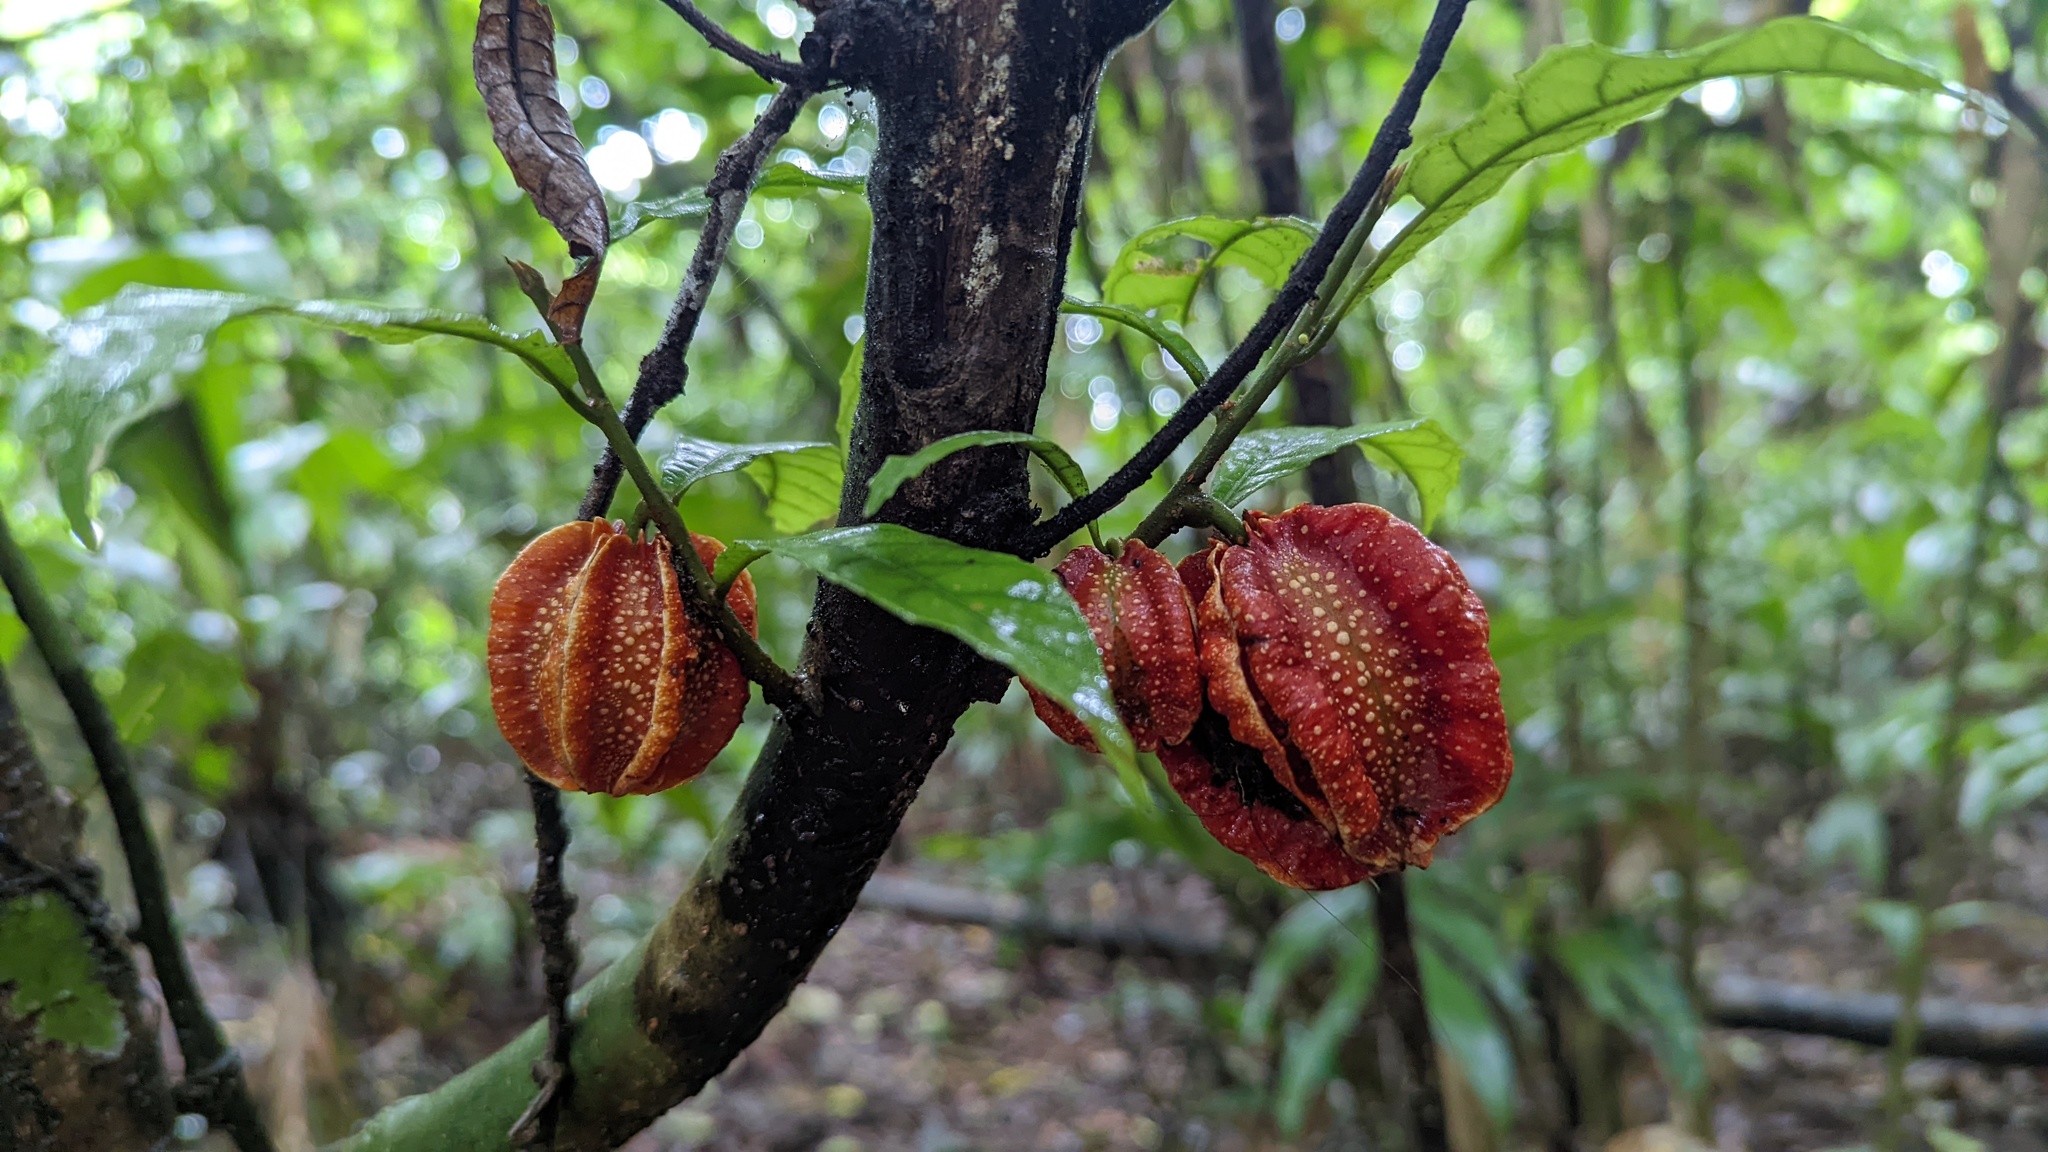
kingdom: Plantae
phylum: Tracheophyta
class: Magnoliopsida
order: Malpighiales
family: Achariaceae
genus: Carpotroche
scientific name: Carpotroche platyptera
